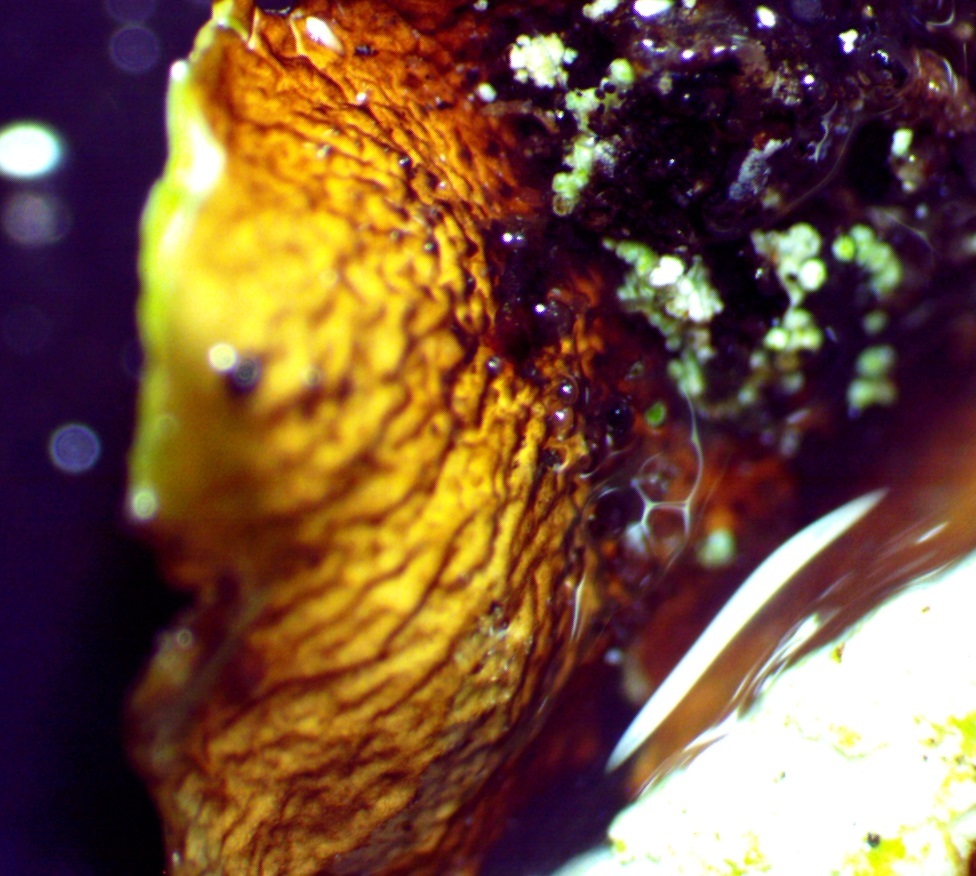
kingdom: Fungi
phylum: Ascomycota
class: Lecanoromycetes
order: Lecanorales
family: Parmeliaceae
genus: Canoparmelia
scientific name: Canoparmelia texana
